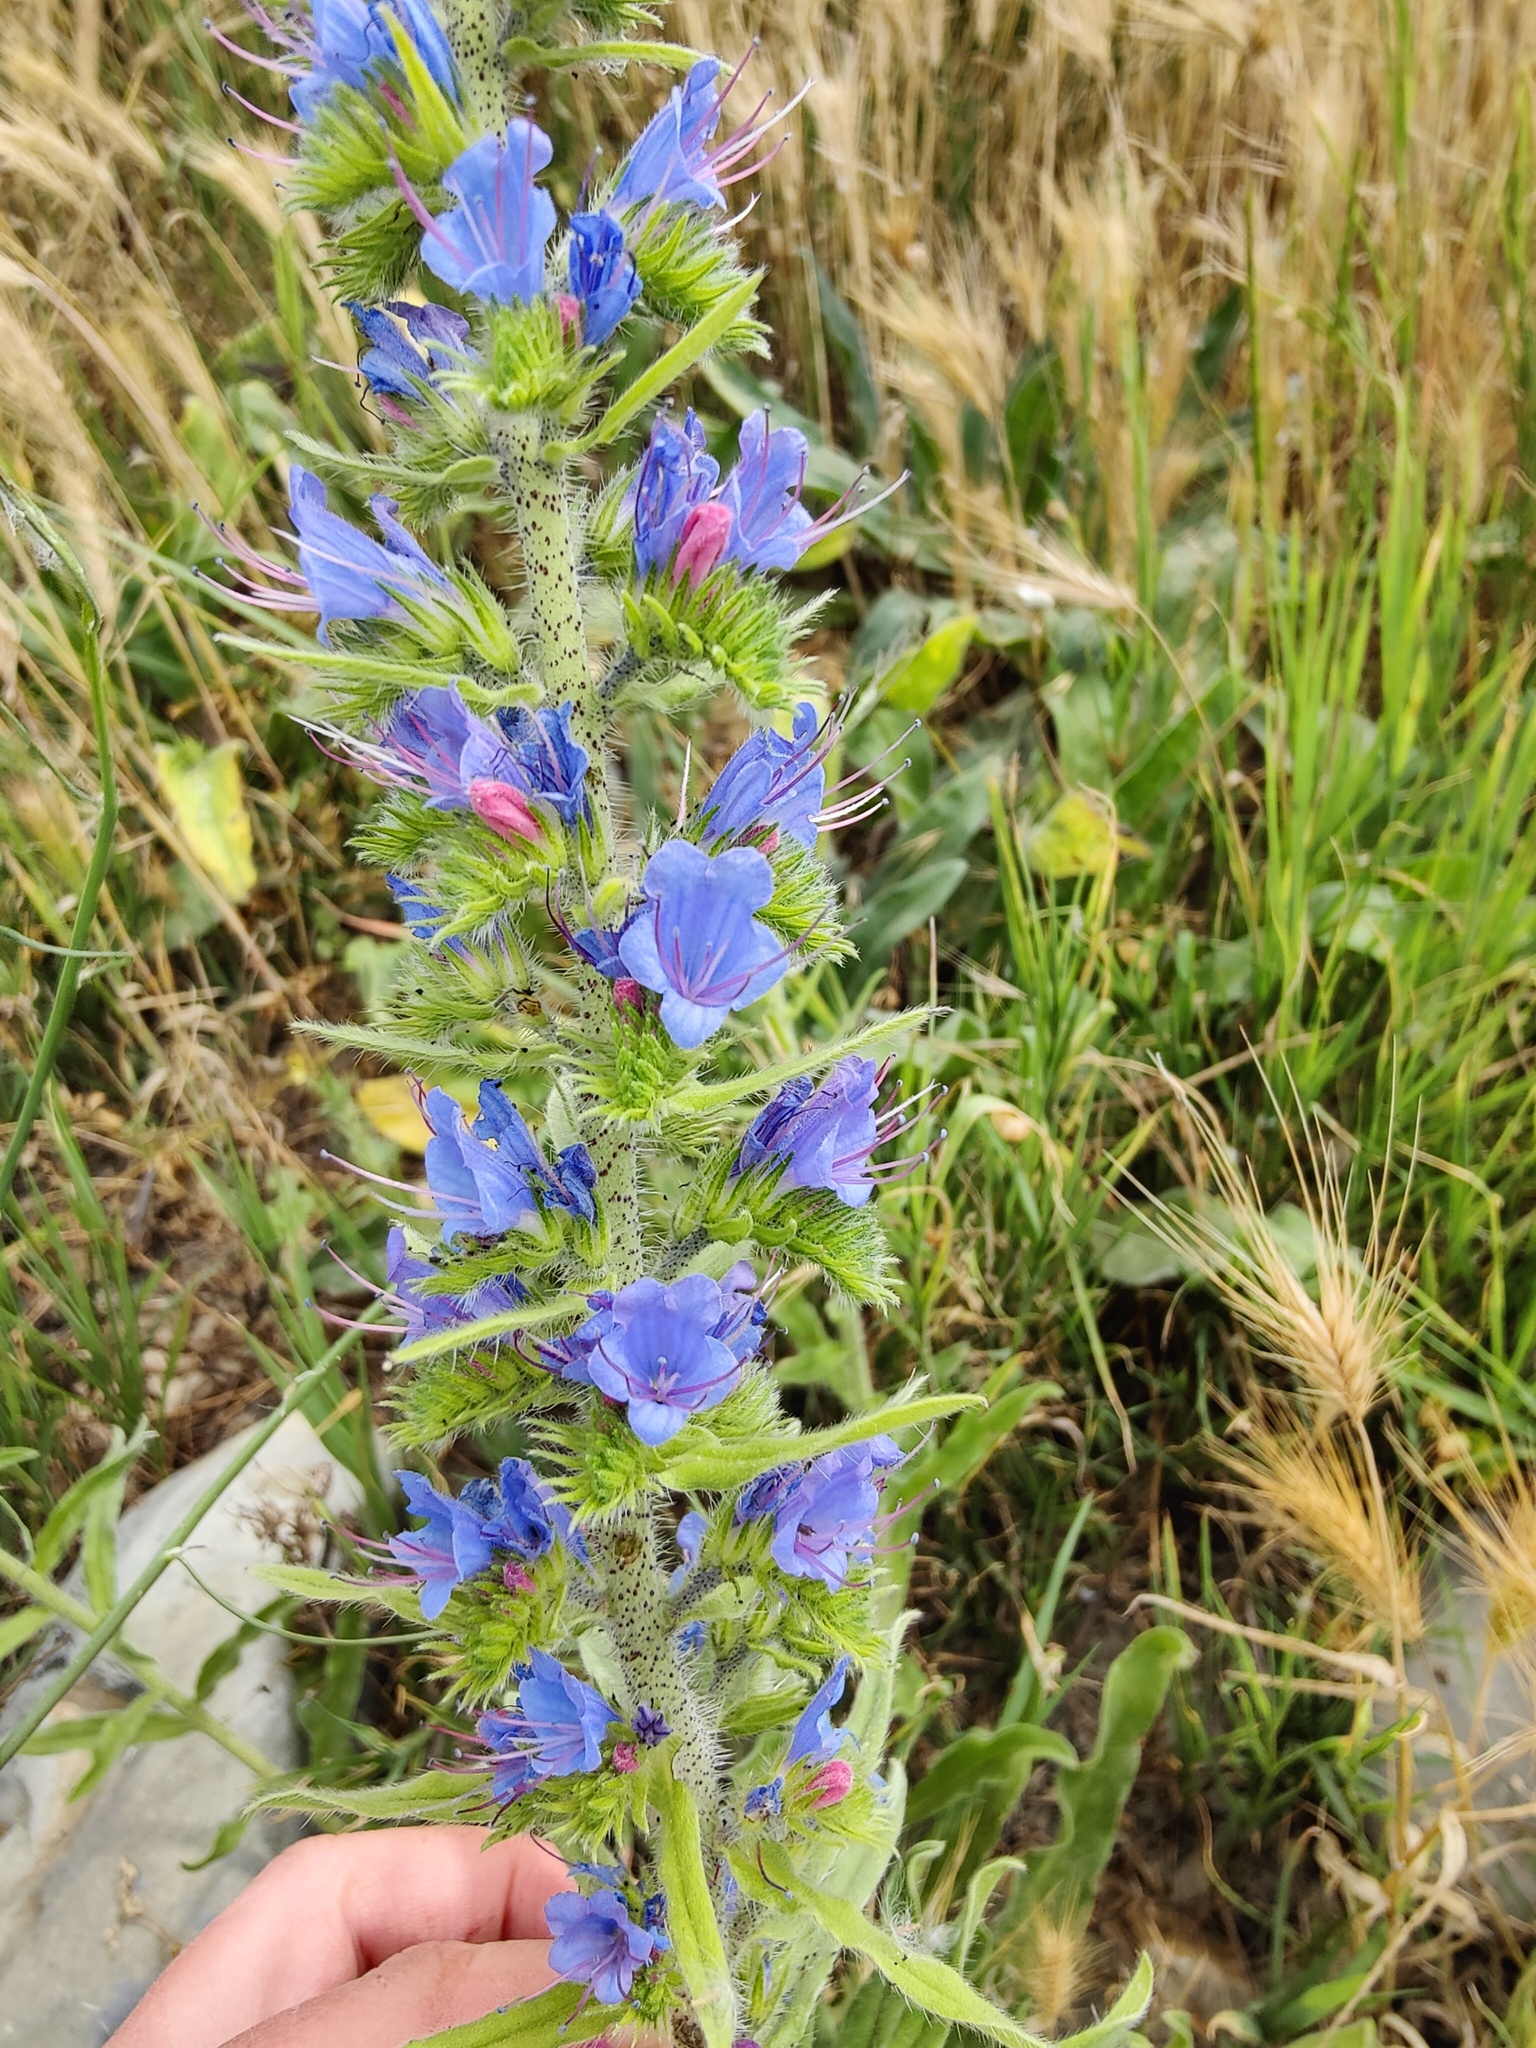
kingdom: Plantae
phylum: Tracheophyta
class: Magnoliopsida
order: Boraginales
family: Boraginaceae
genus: Echium
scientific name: Echium vulgare
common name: Common viper's bugloss
